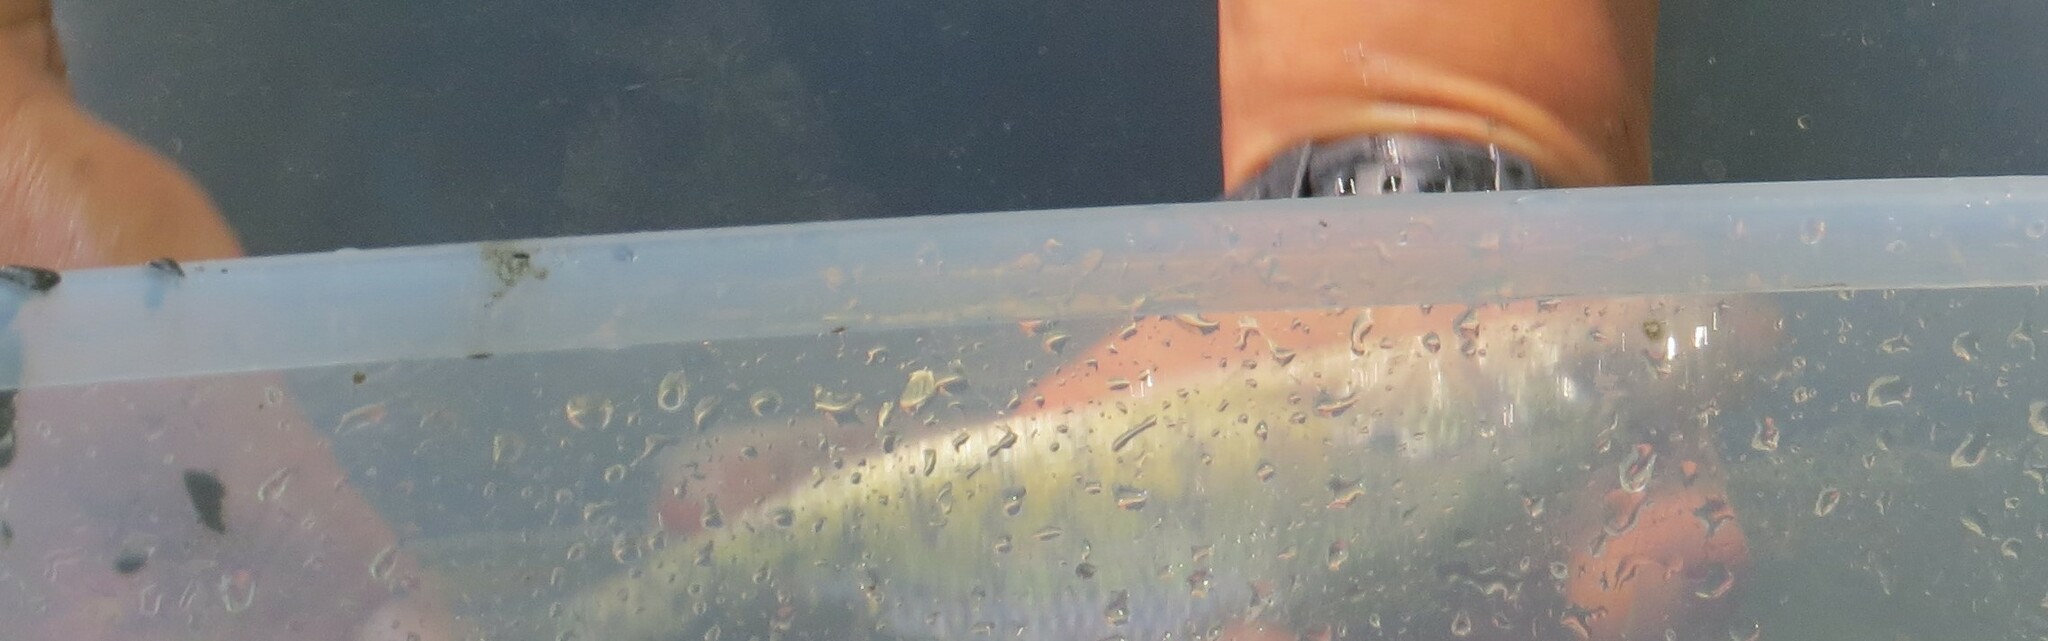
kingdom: Animalia
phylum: Chordata
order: Cypriniformes
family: Catostomidae
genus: Moxostoma
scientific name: Moxostoma erythrurum
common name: Golden redhorse
